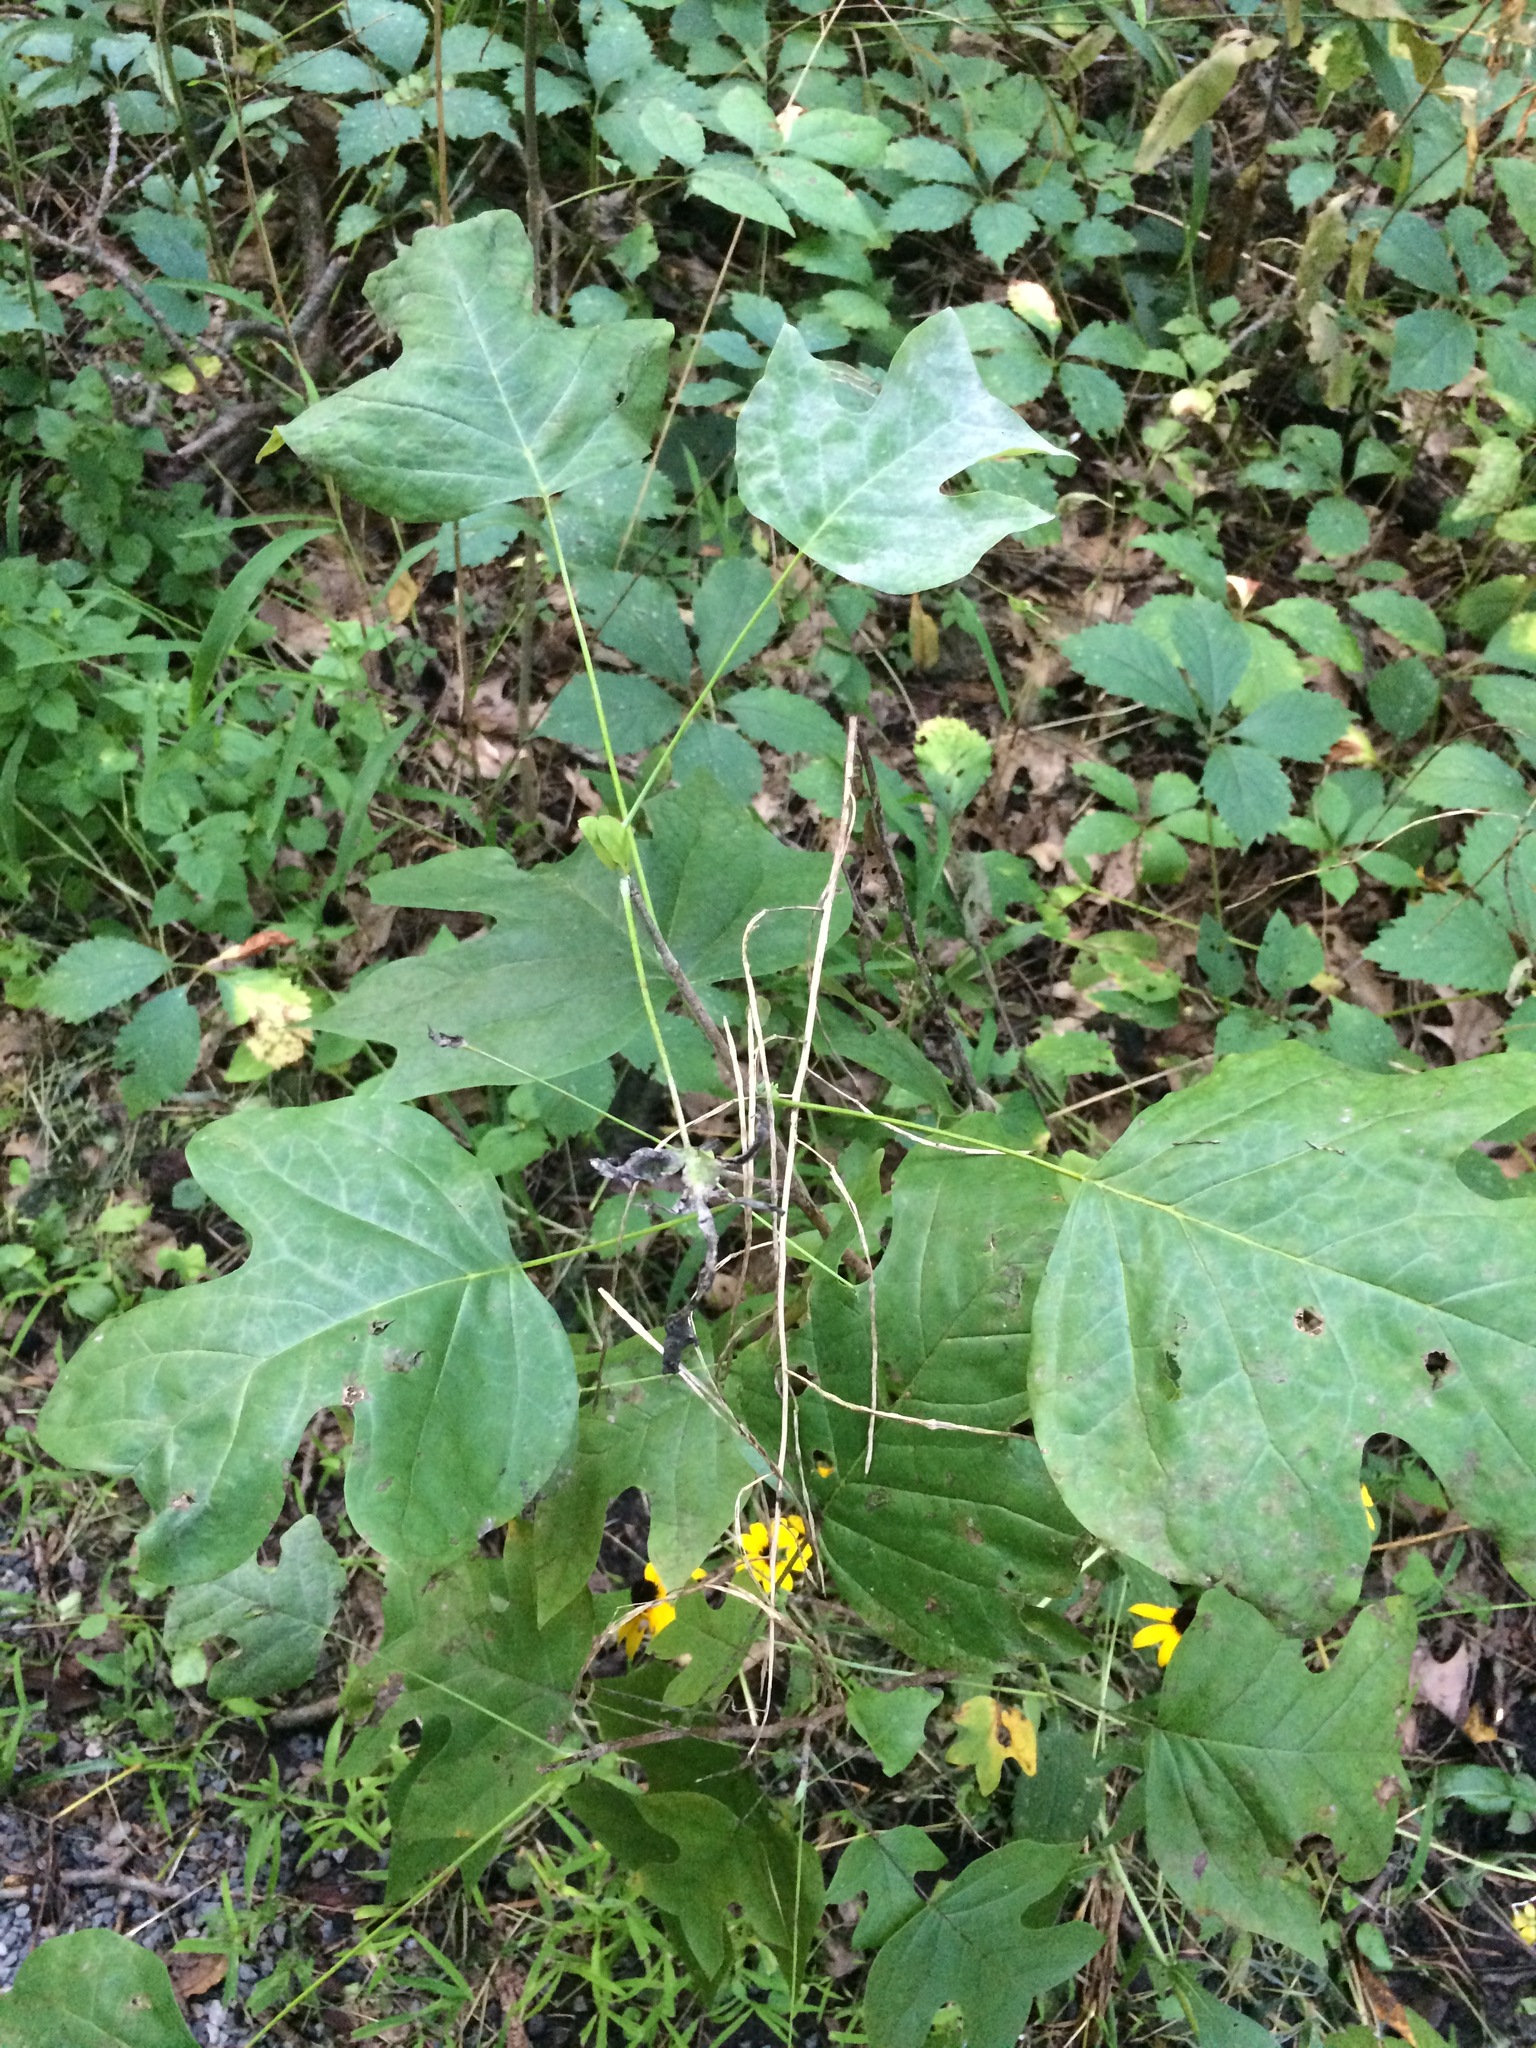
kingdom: Plantae
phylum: Tracheophyta
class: Magnoliopsida
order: Magnoliales
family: Magnoliaceae
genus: Liriodendron
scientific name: Liriodendron tulipifera
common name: Tulip tree
